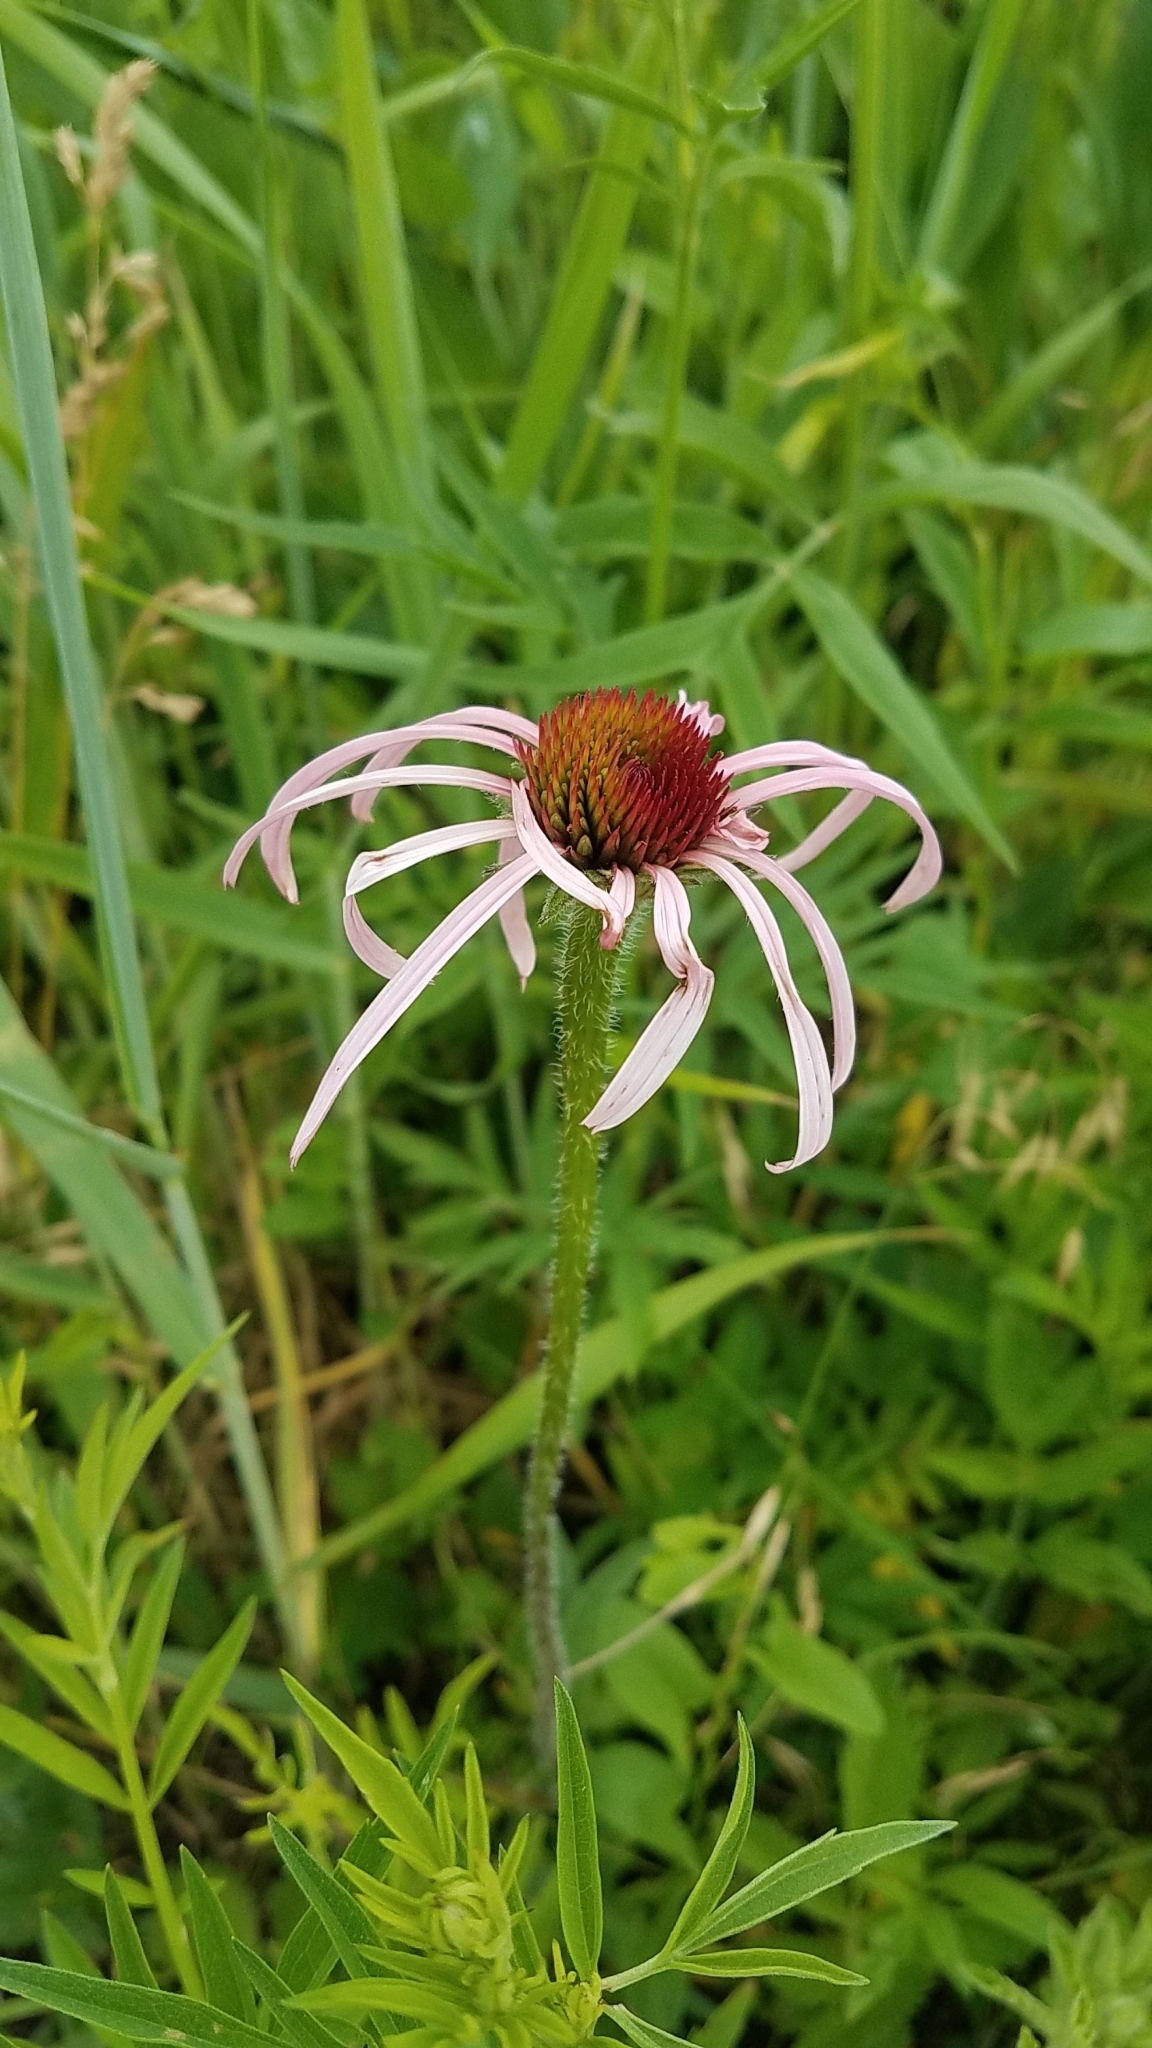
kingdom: Plantae
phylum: Tracheophyta
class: Magnoliopsida
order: Asterales
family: Asteraceae
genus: Echinacea
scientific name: Echinacea pallida
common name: Pale echinacea
